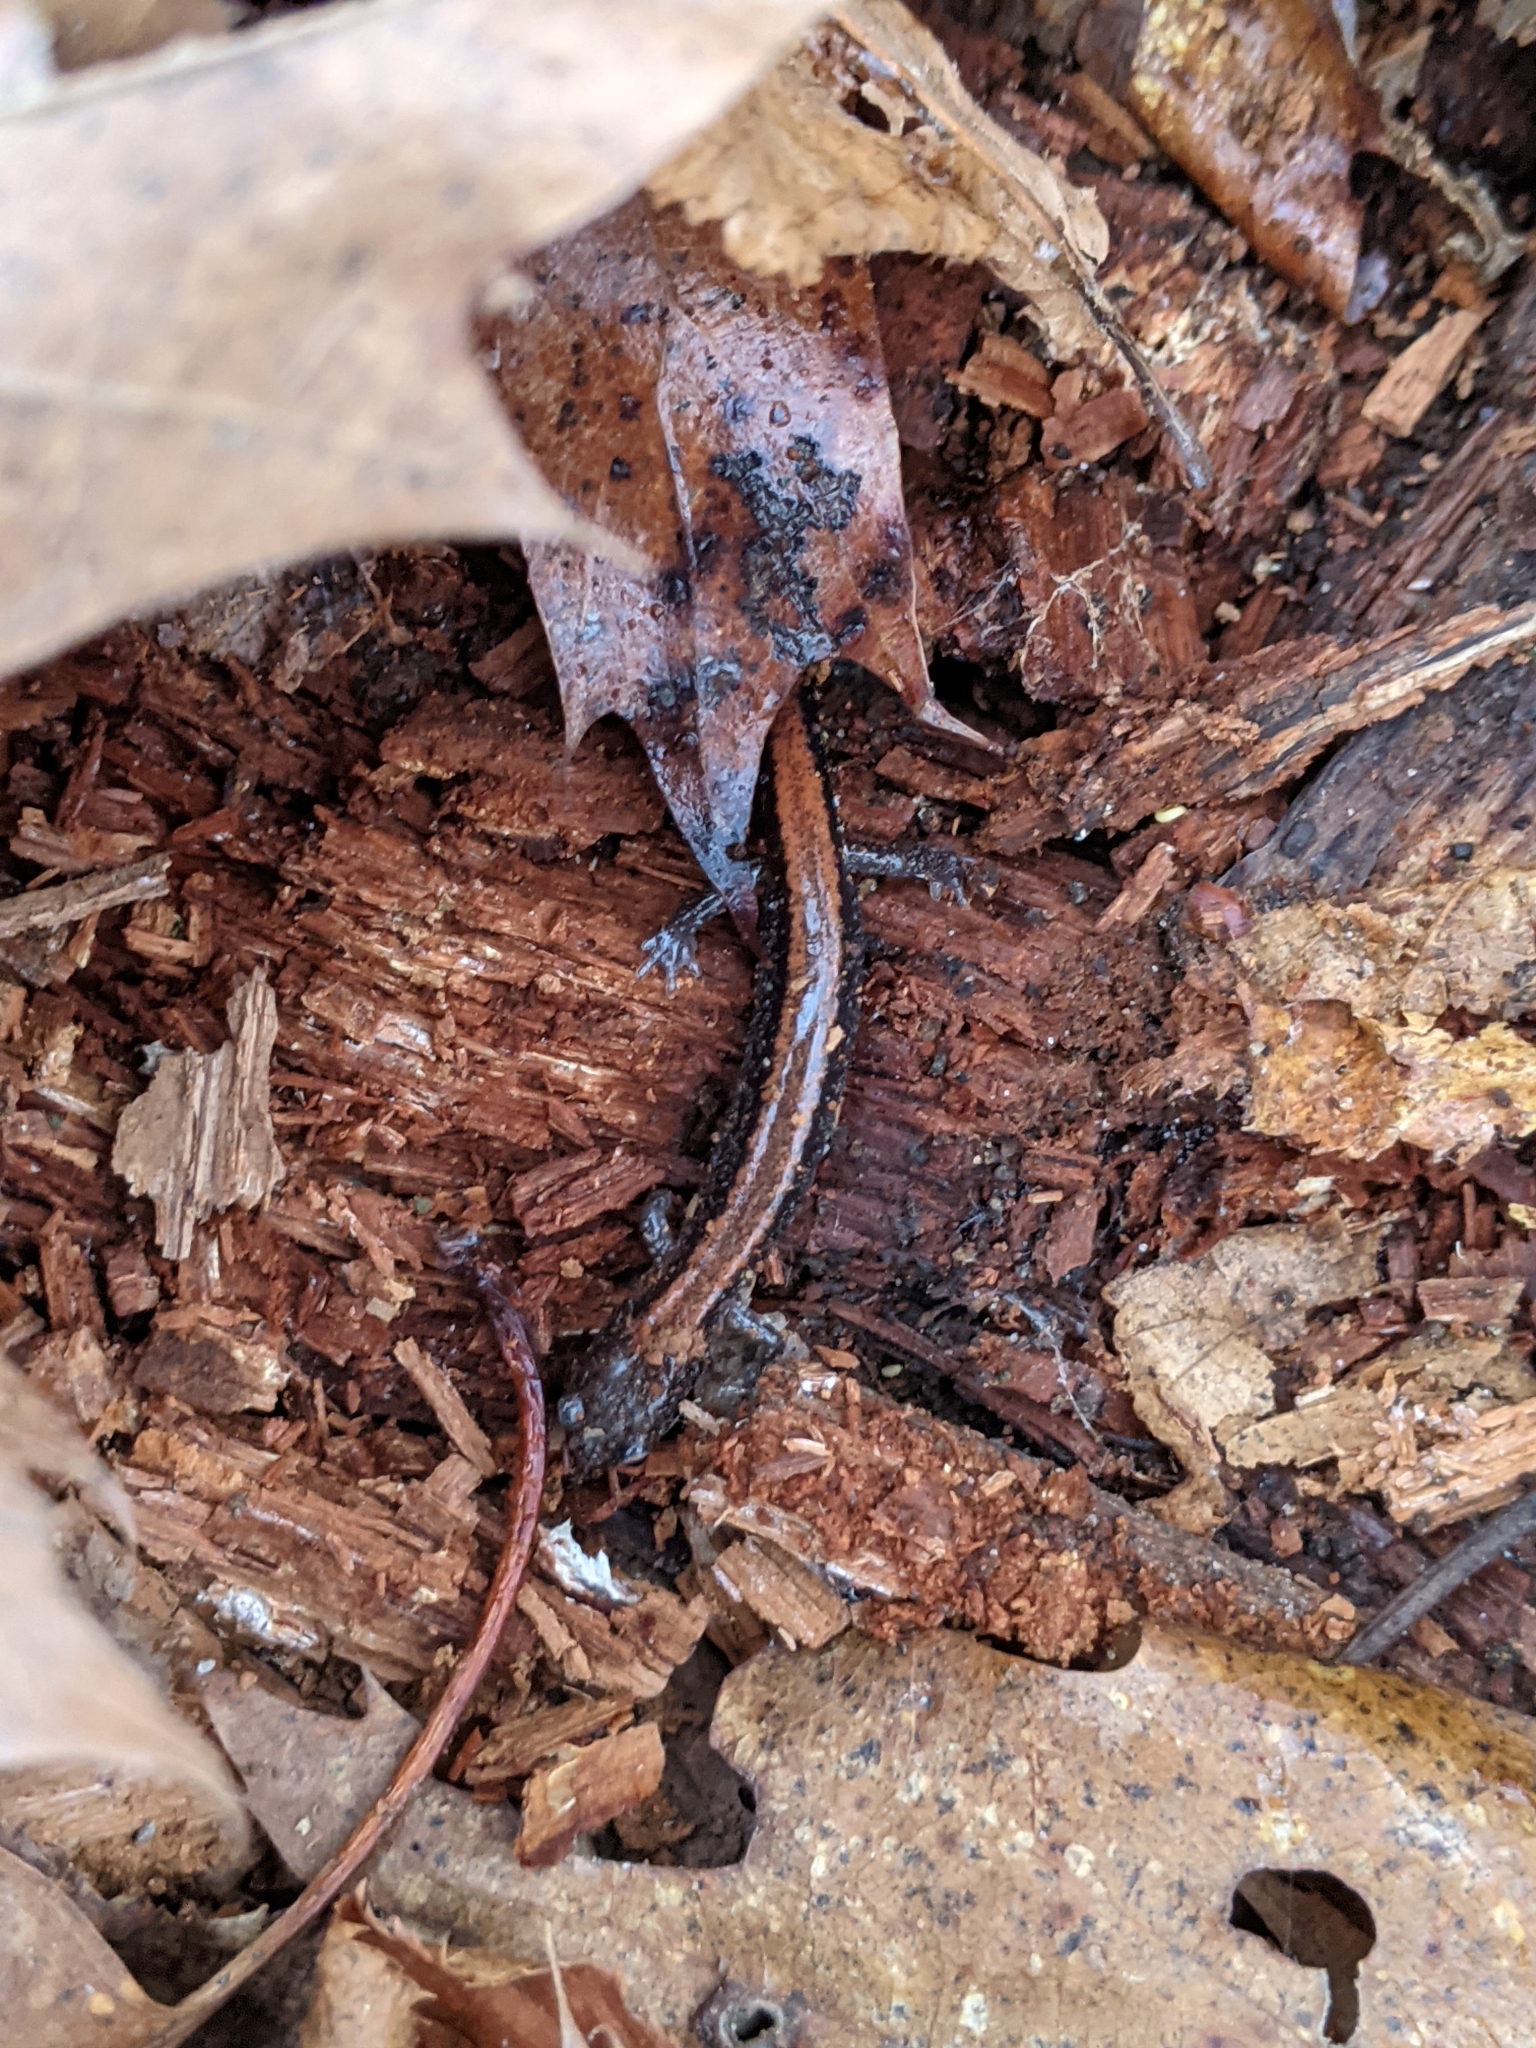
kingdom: Animalia
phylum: Chordata
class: Amphibia
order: Caudata
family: Plethodontidae
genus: Plethodon
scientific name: Plethodon cinereus
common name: Redback salamander
